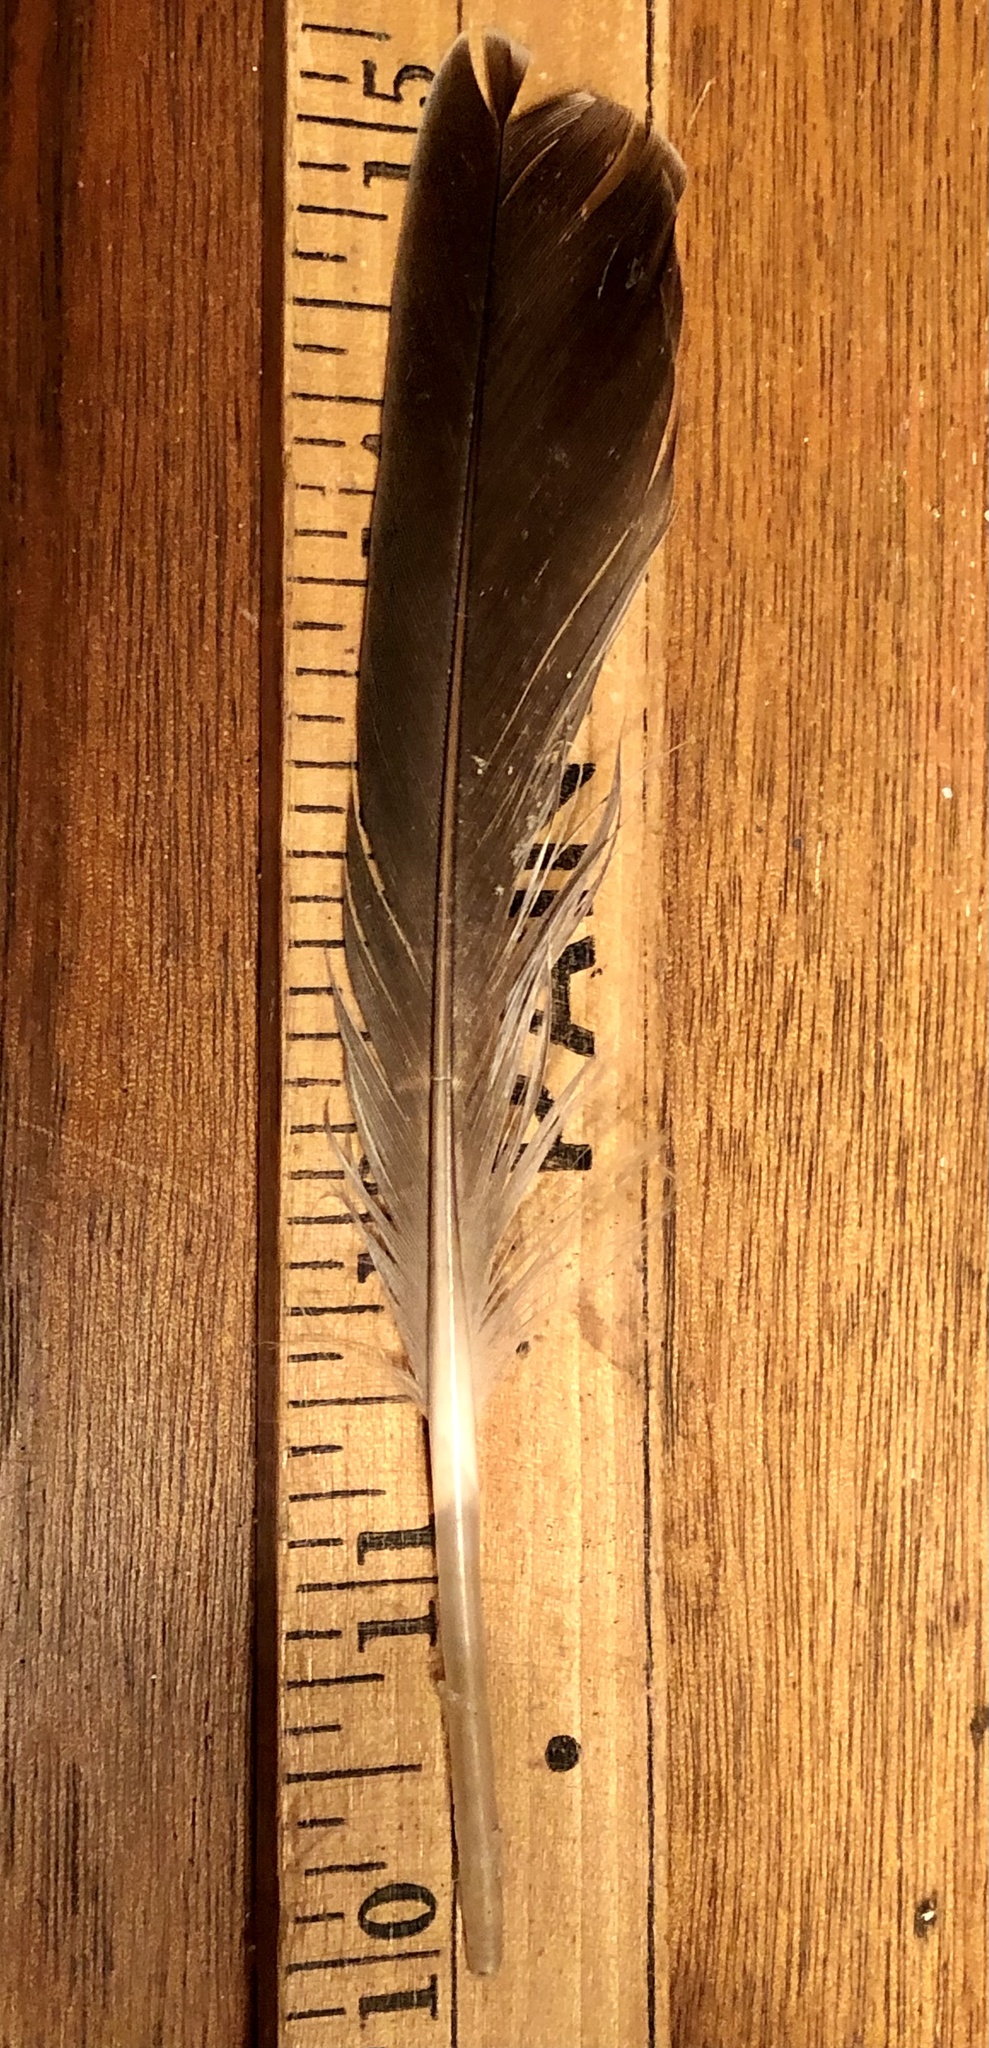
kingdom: Animalia
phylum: Chordata
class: Aves
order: Anseriformes
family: Anatidae
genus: Anas
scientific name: Anas platyrhynchos
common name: Mallard
